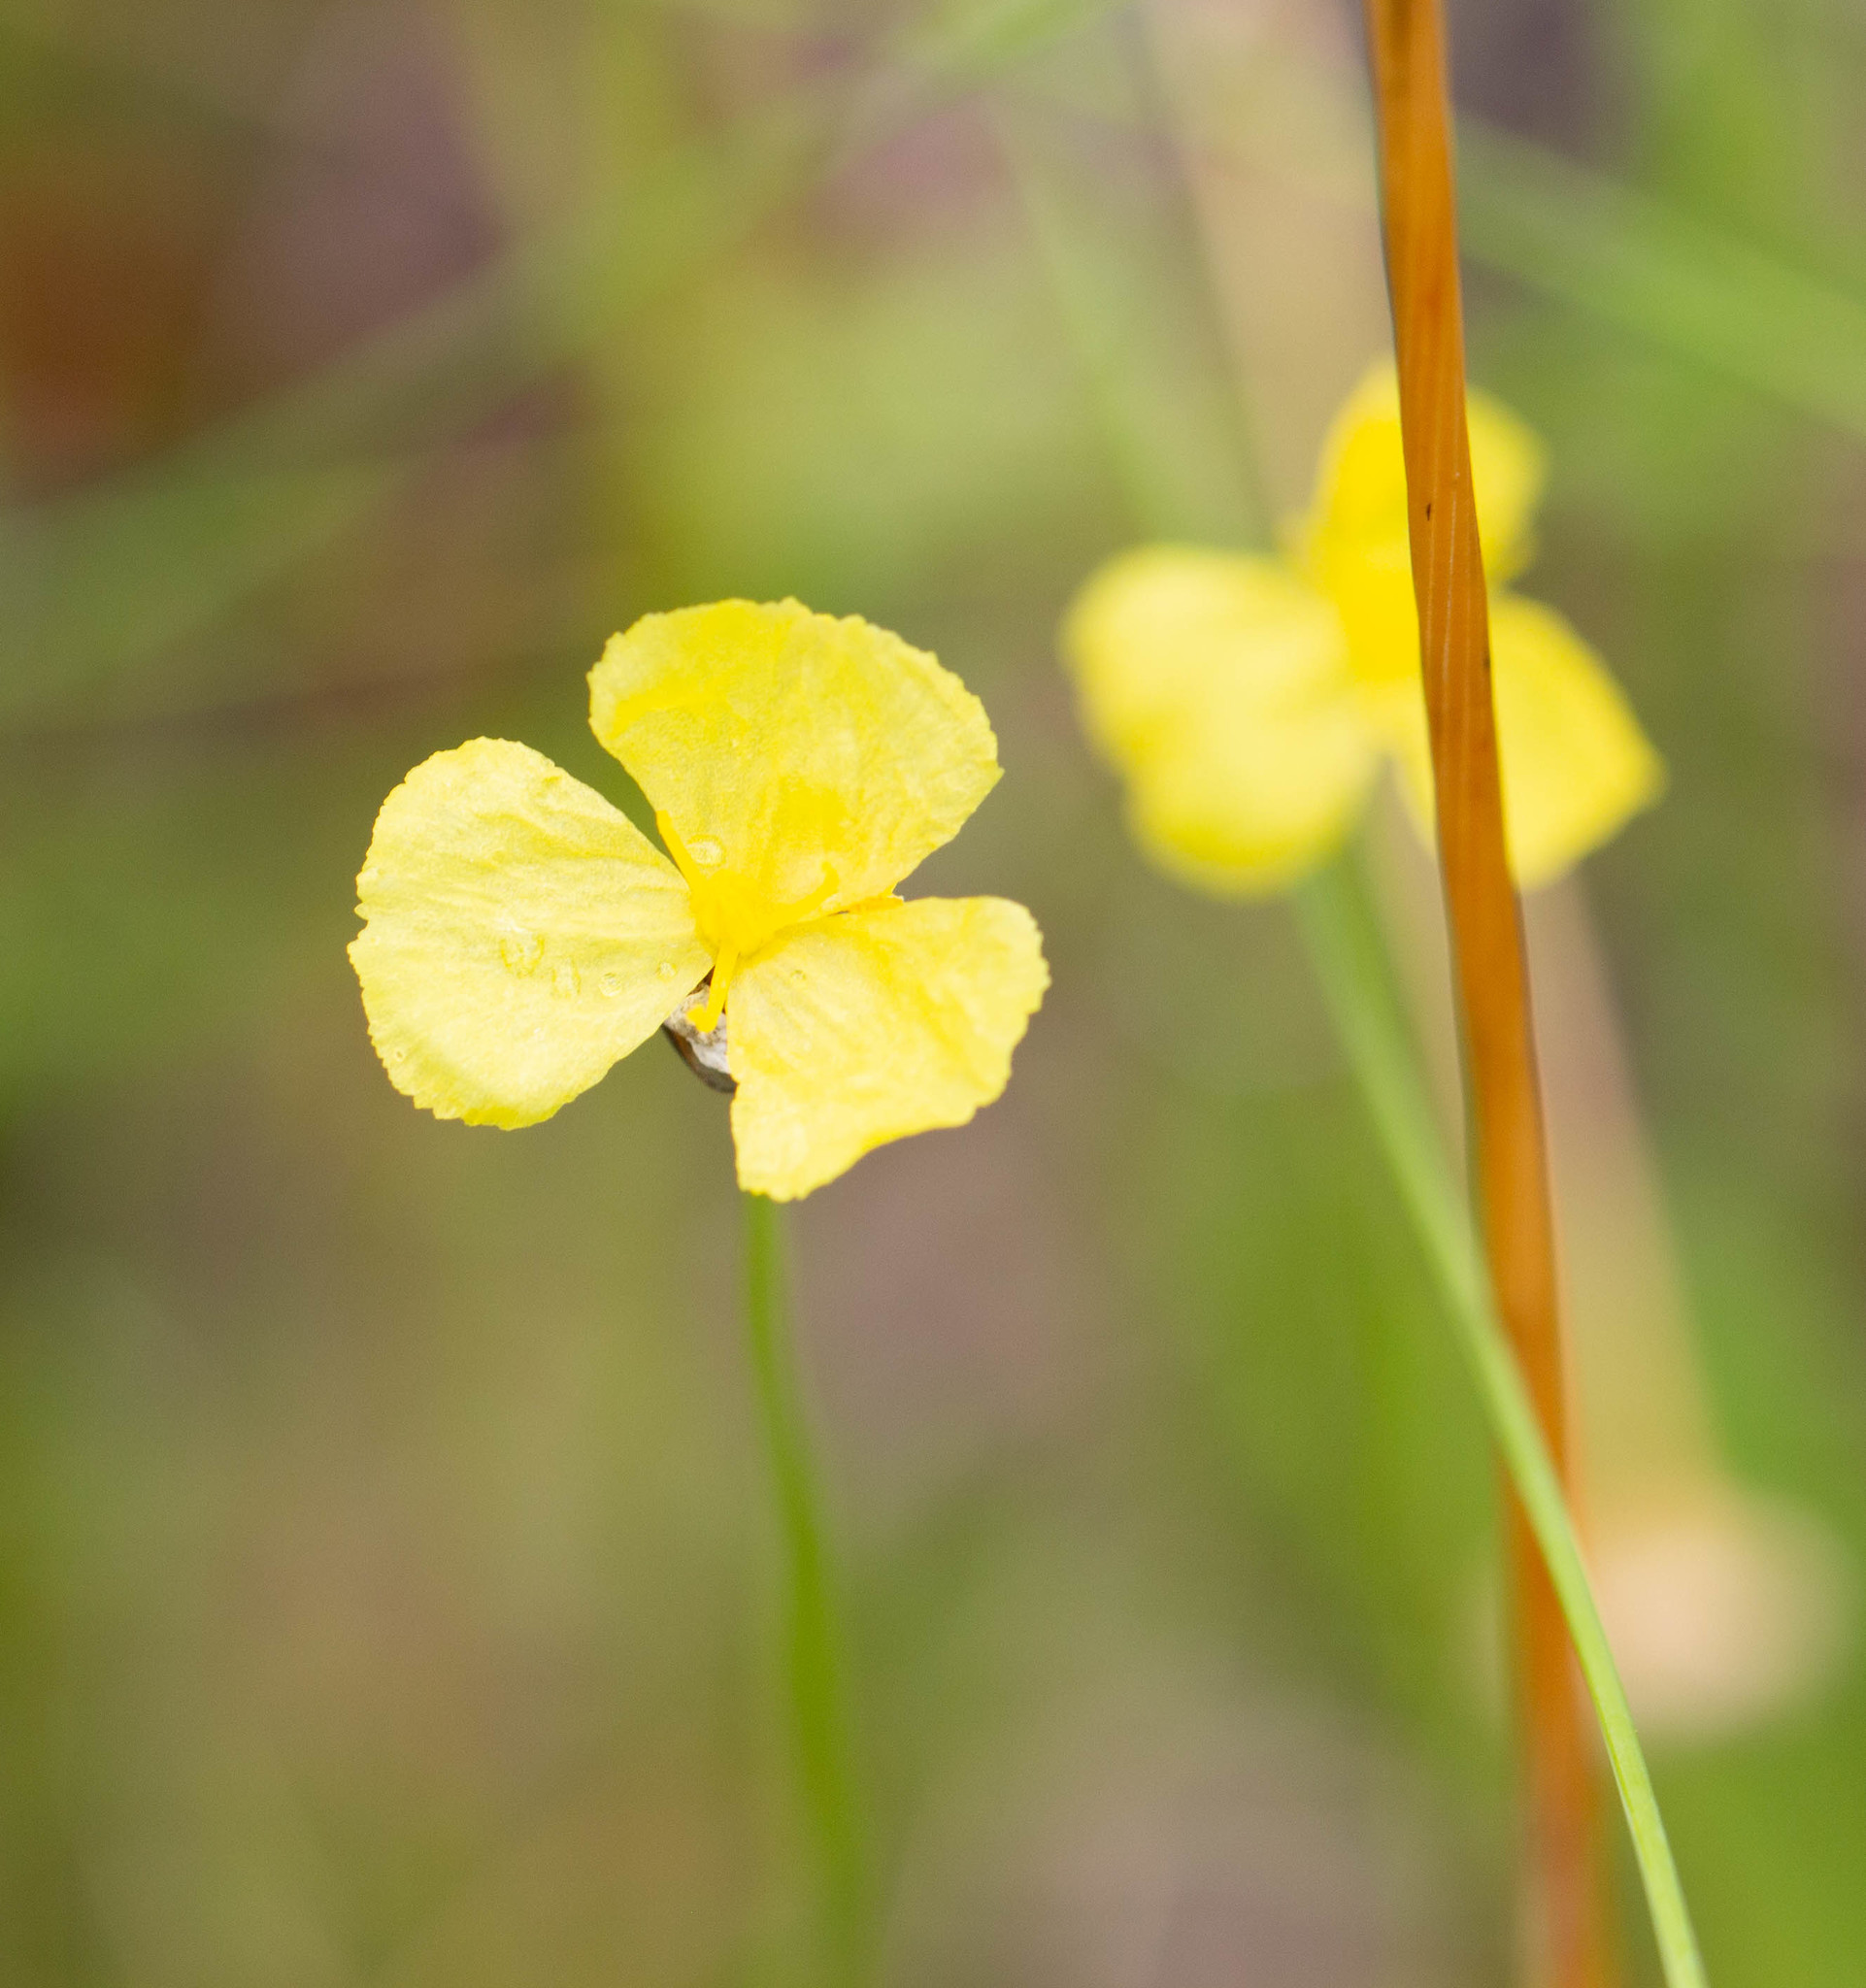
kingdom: Plantae
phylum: Tracheophyta
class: Liliopsida
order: Poales
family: Xyridaceae
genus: Xyris
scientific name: Xyris baldwiniana
